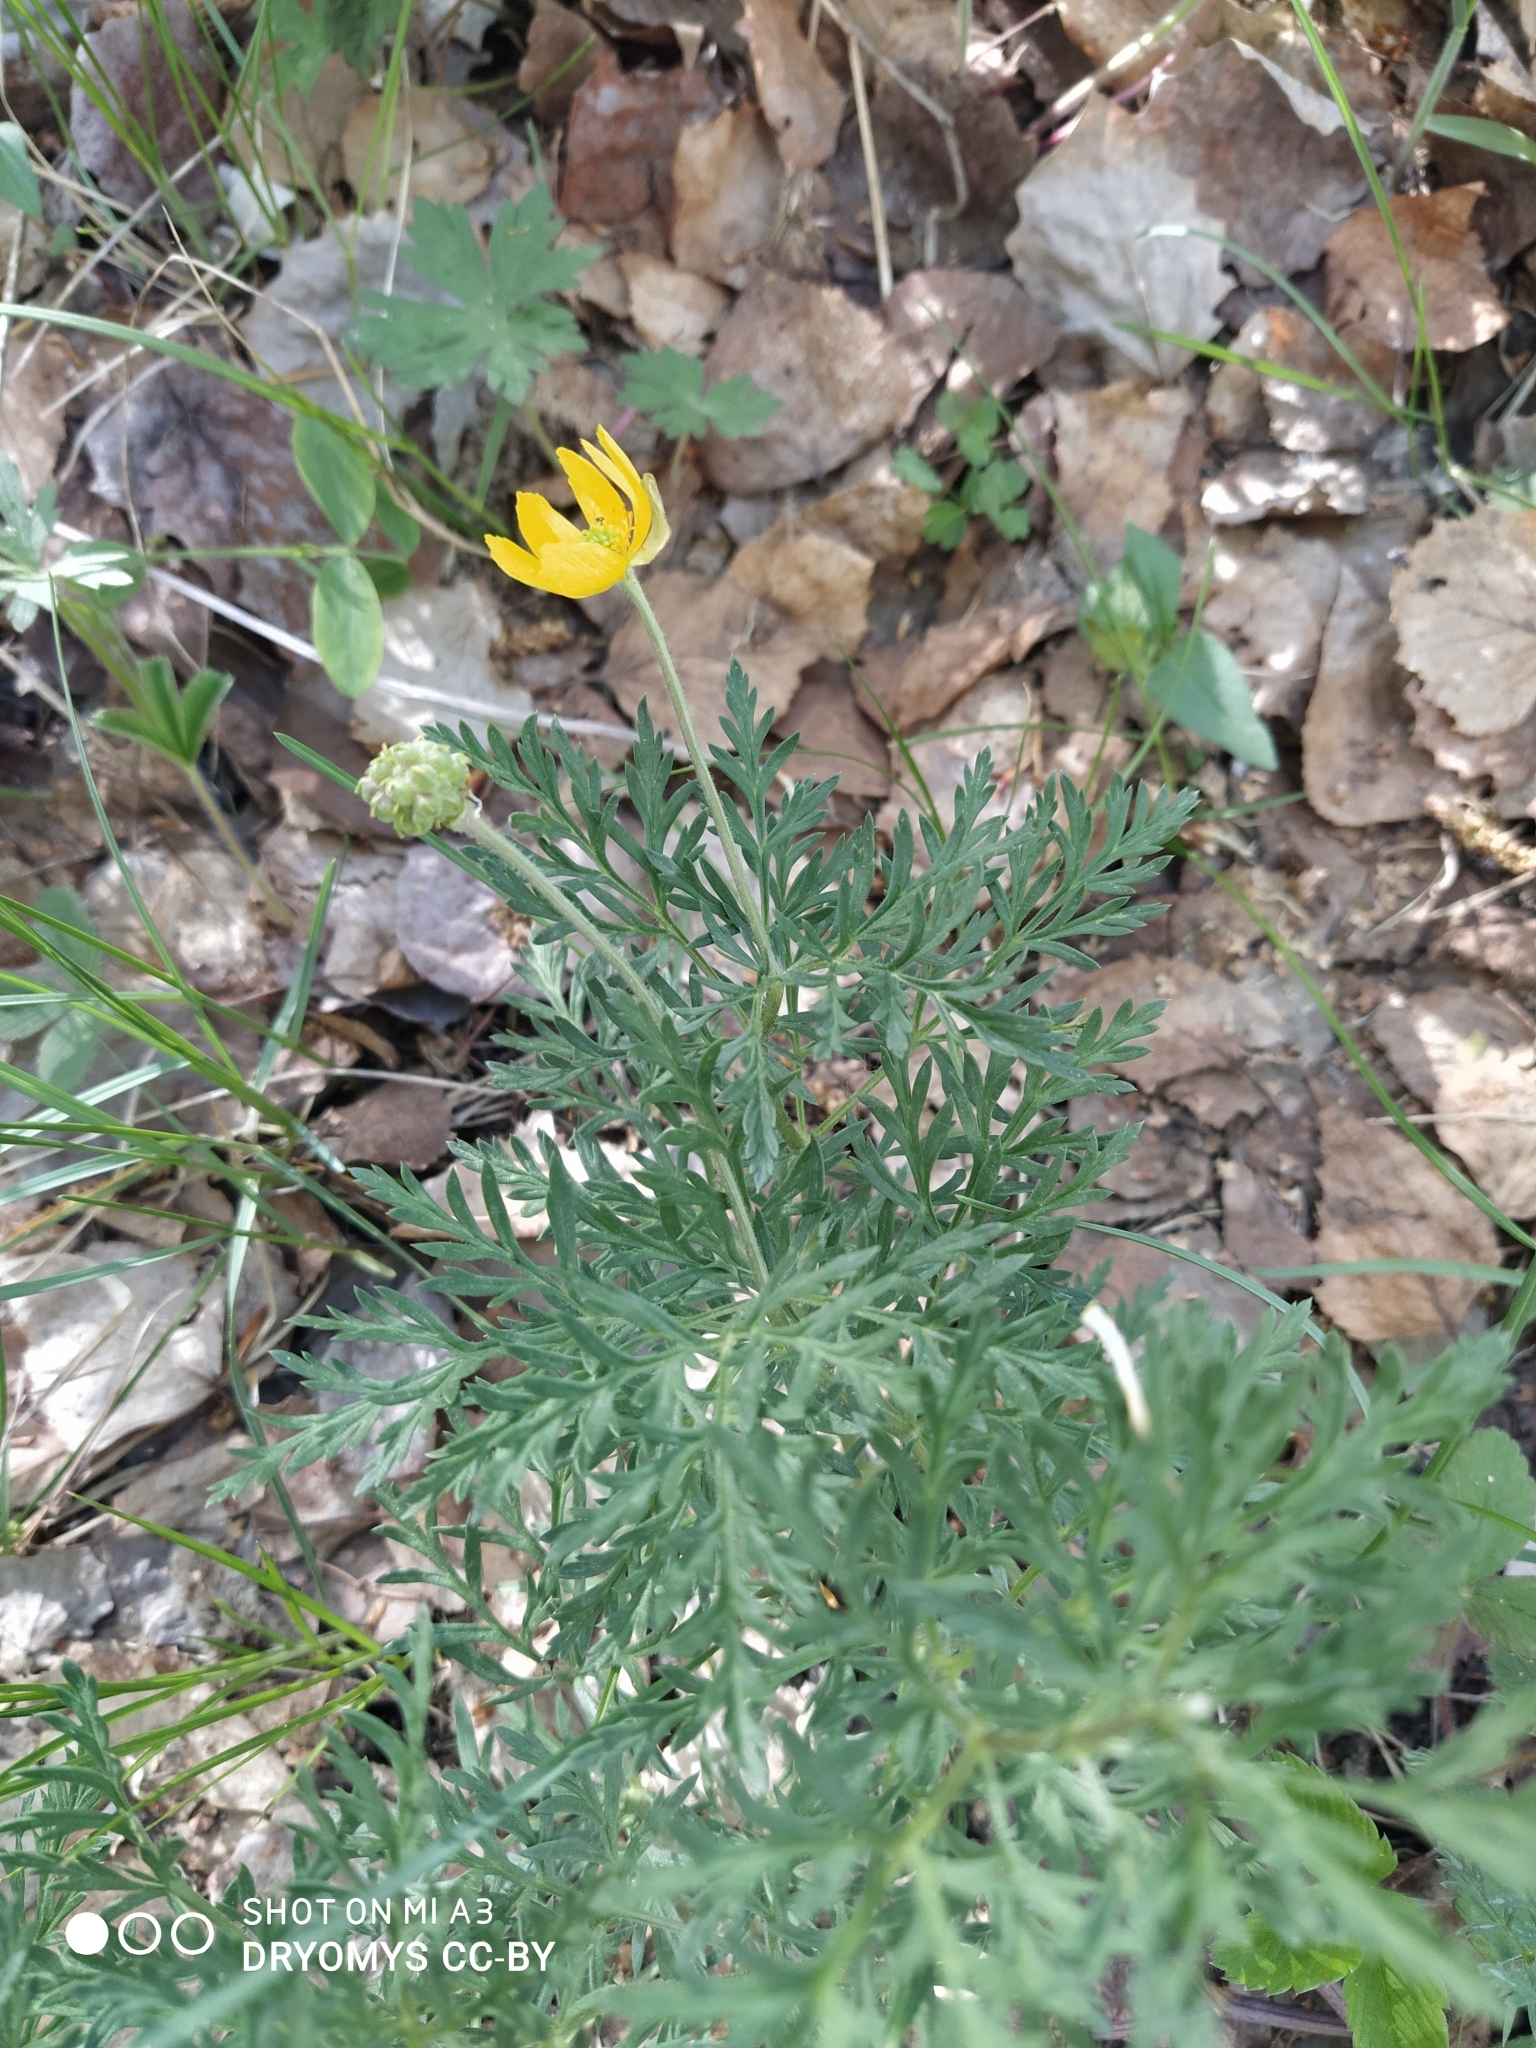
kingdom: Plantae
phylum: Tracheophyta
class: Magnoliopsida
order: Ranunculales
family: Ranunculaceae
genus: Adonis
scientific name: Adonis villosa
